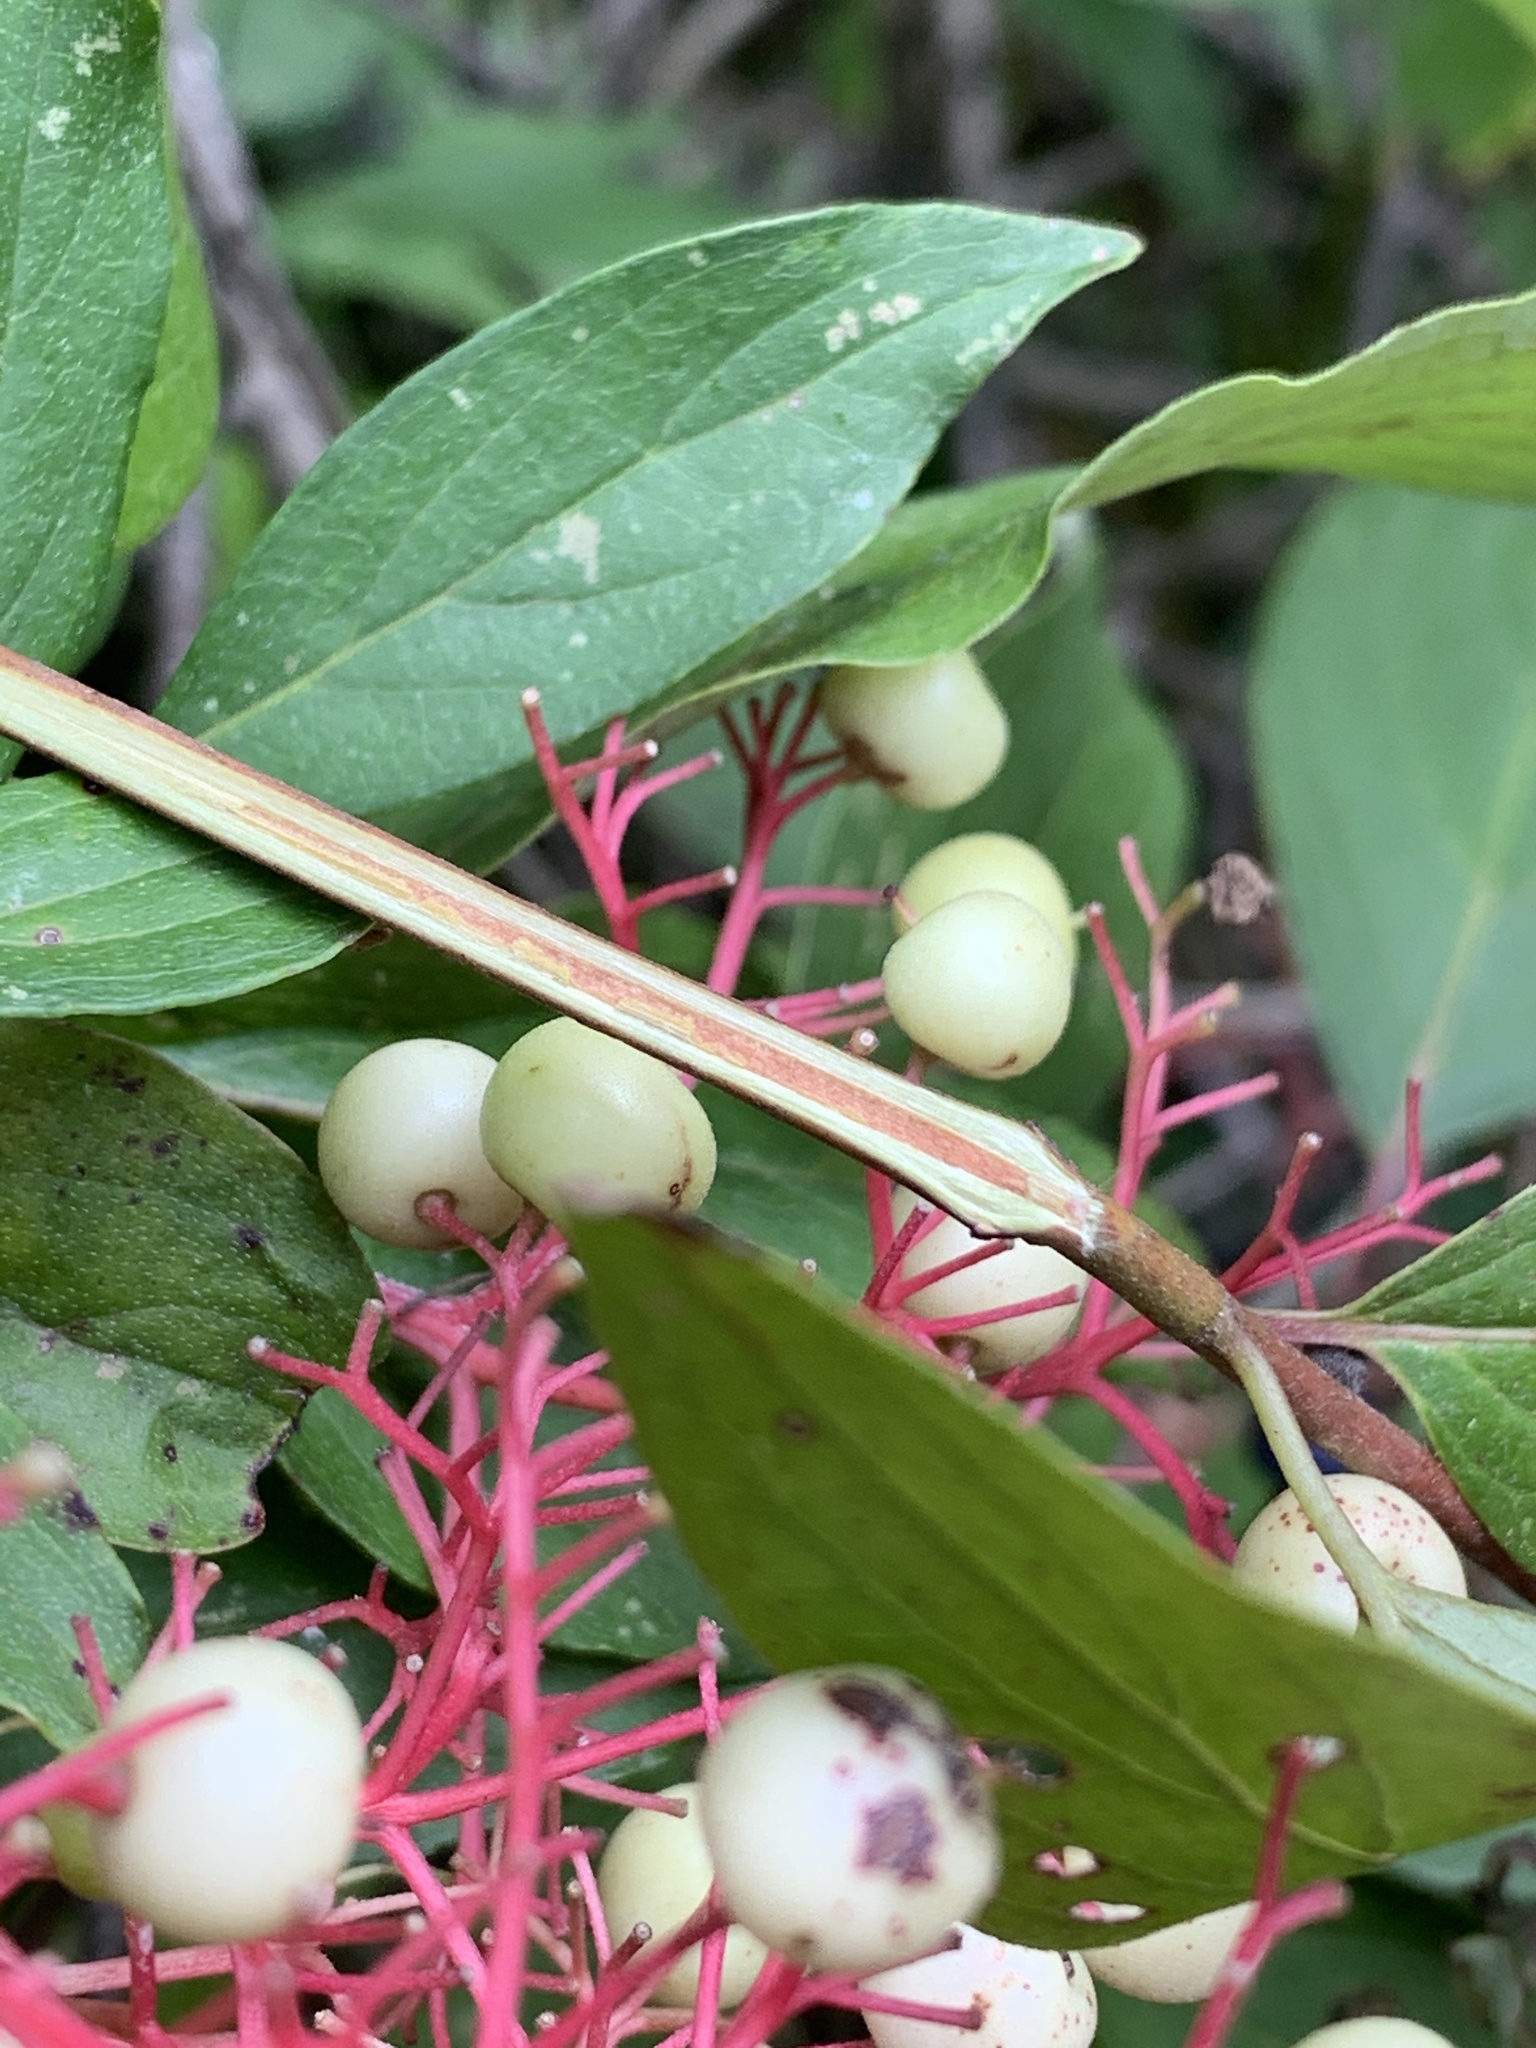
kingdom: Plantae
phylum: Tracheophyta
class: Magnoliopsida
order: Cornales
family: Cornaceae
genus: Cornus
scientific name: Cornus racemosa
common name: Panicled dogwood
